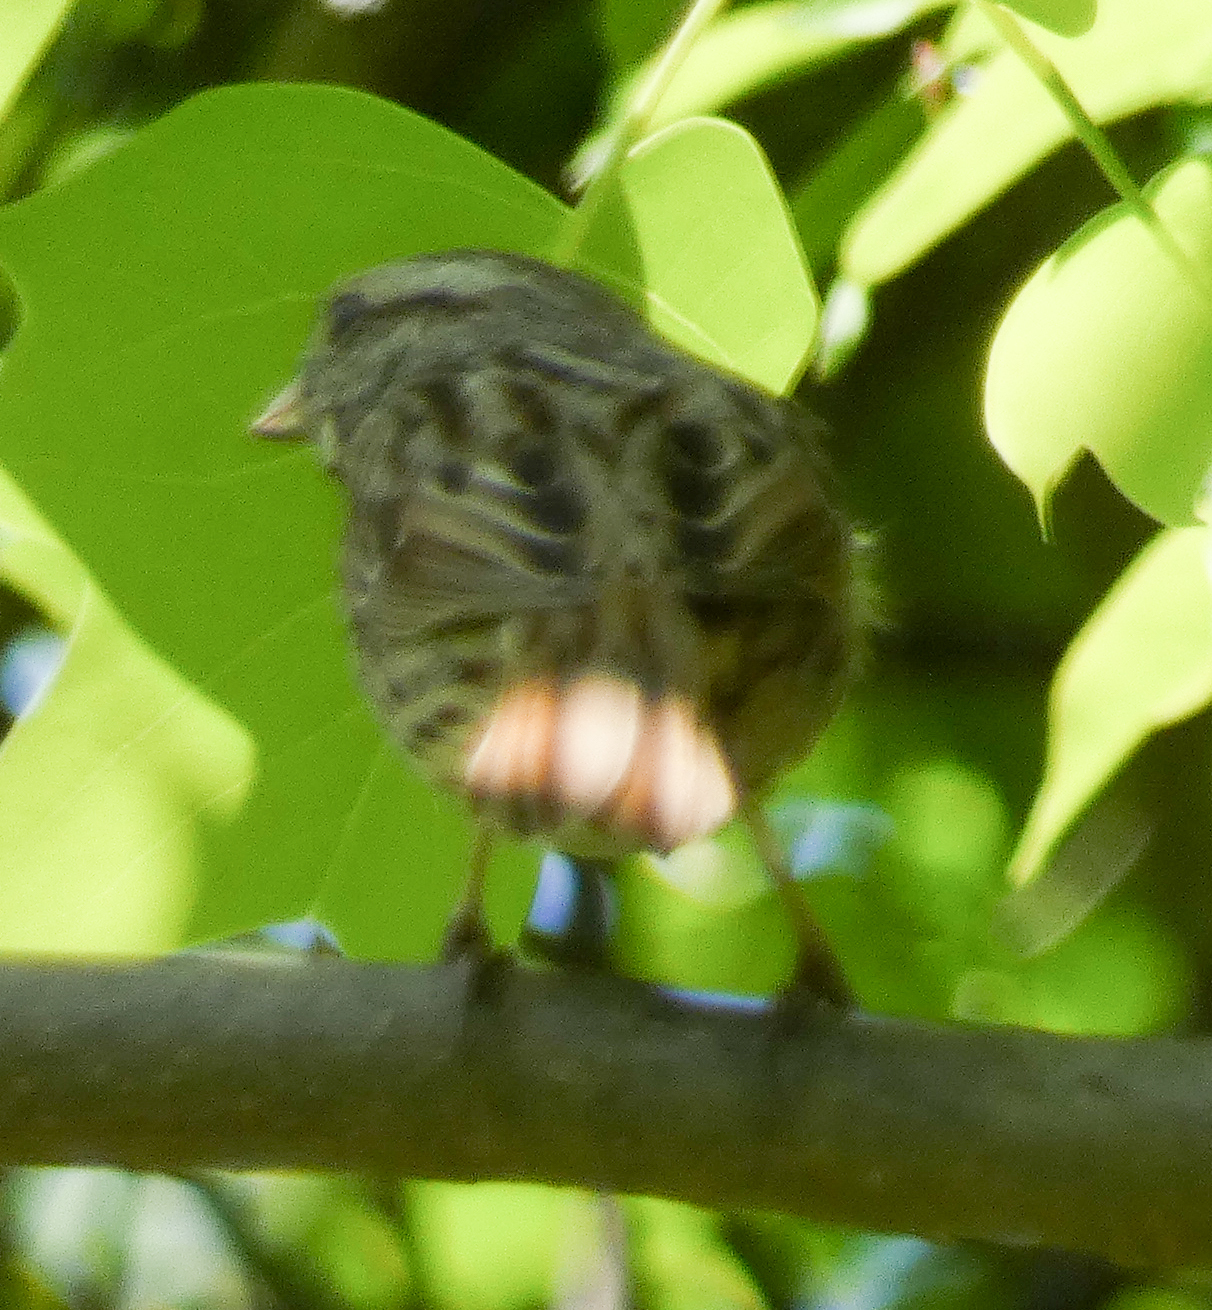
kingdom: Animalia
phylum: Chordata
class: Aves
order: Passeriformes
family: Passerellidae
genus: Melospiza
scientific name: Melospiza melodia
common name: Song sparrow
